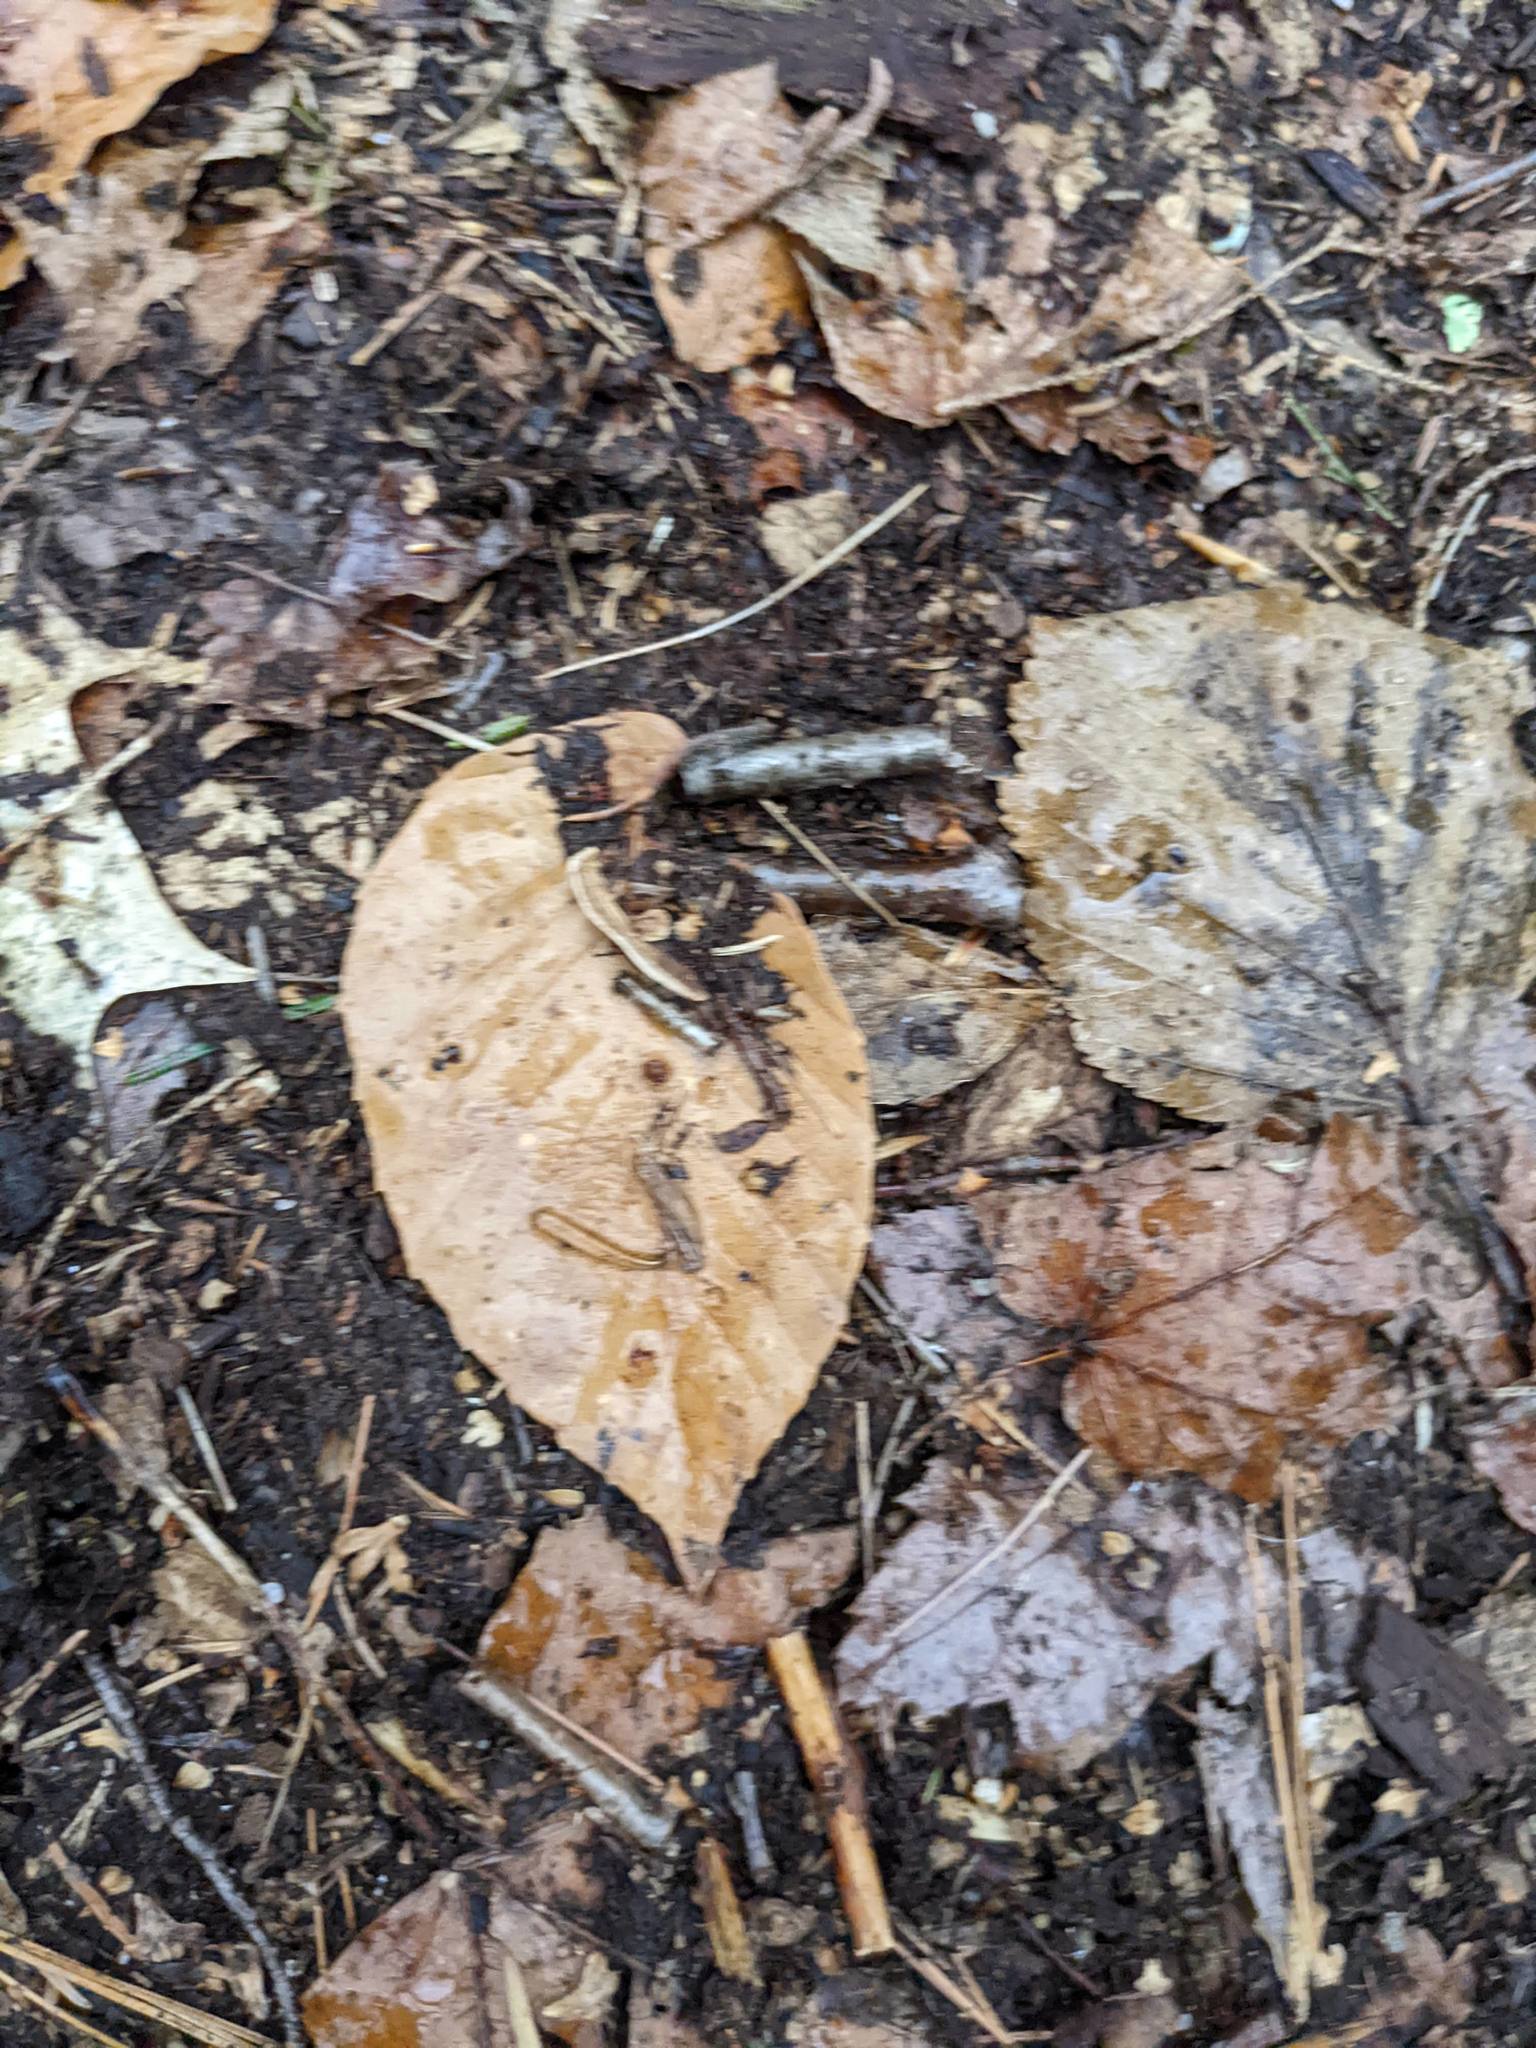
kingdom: Plantae
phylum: Tracheophyta
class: Magnoliopsida
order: Fagales
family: Fagaceae
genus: Fagus
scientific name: Fagus grandifolia
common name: American beech
